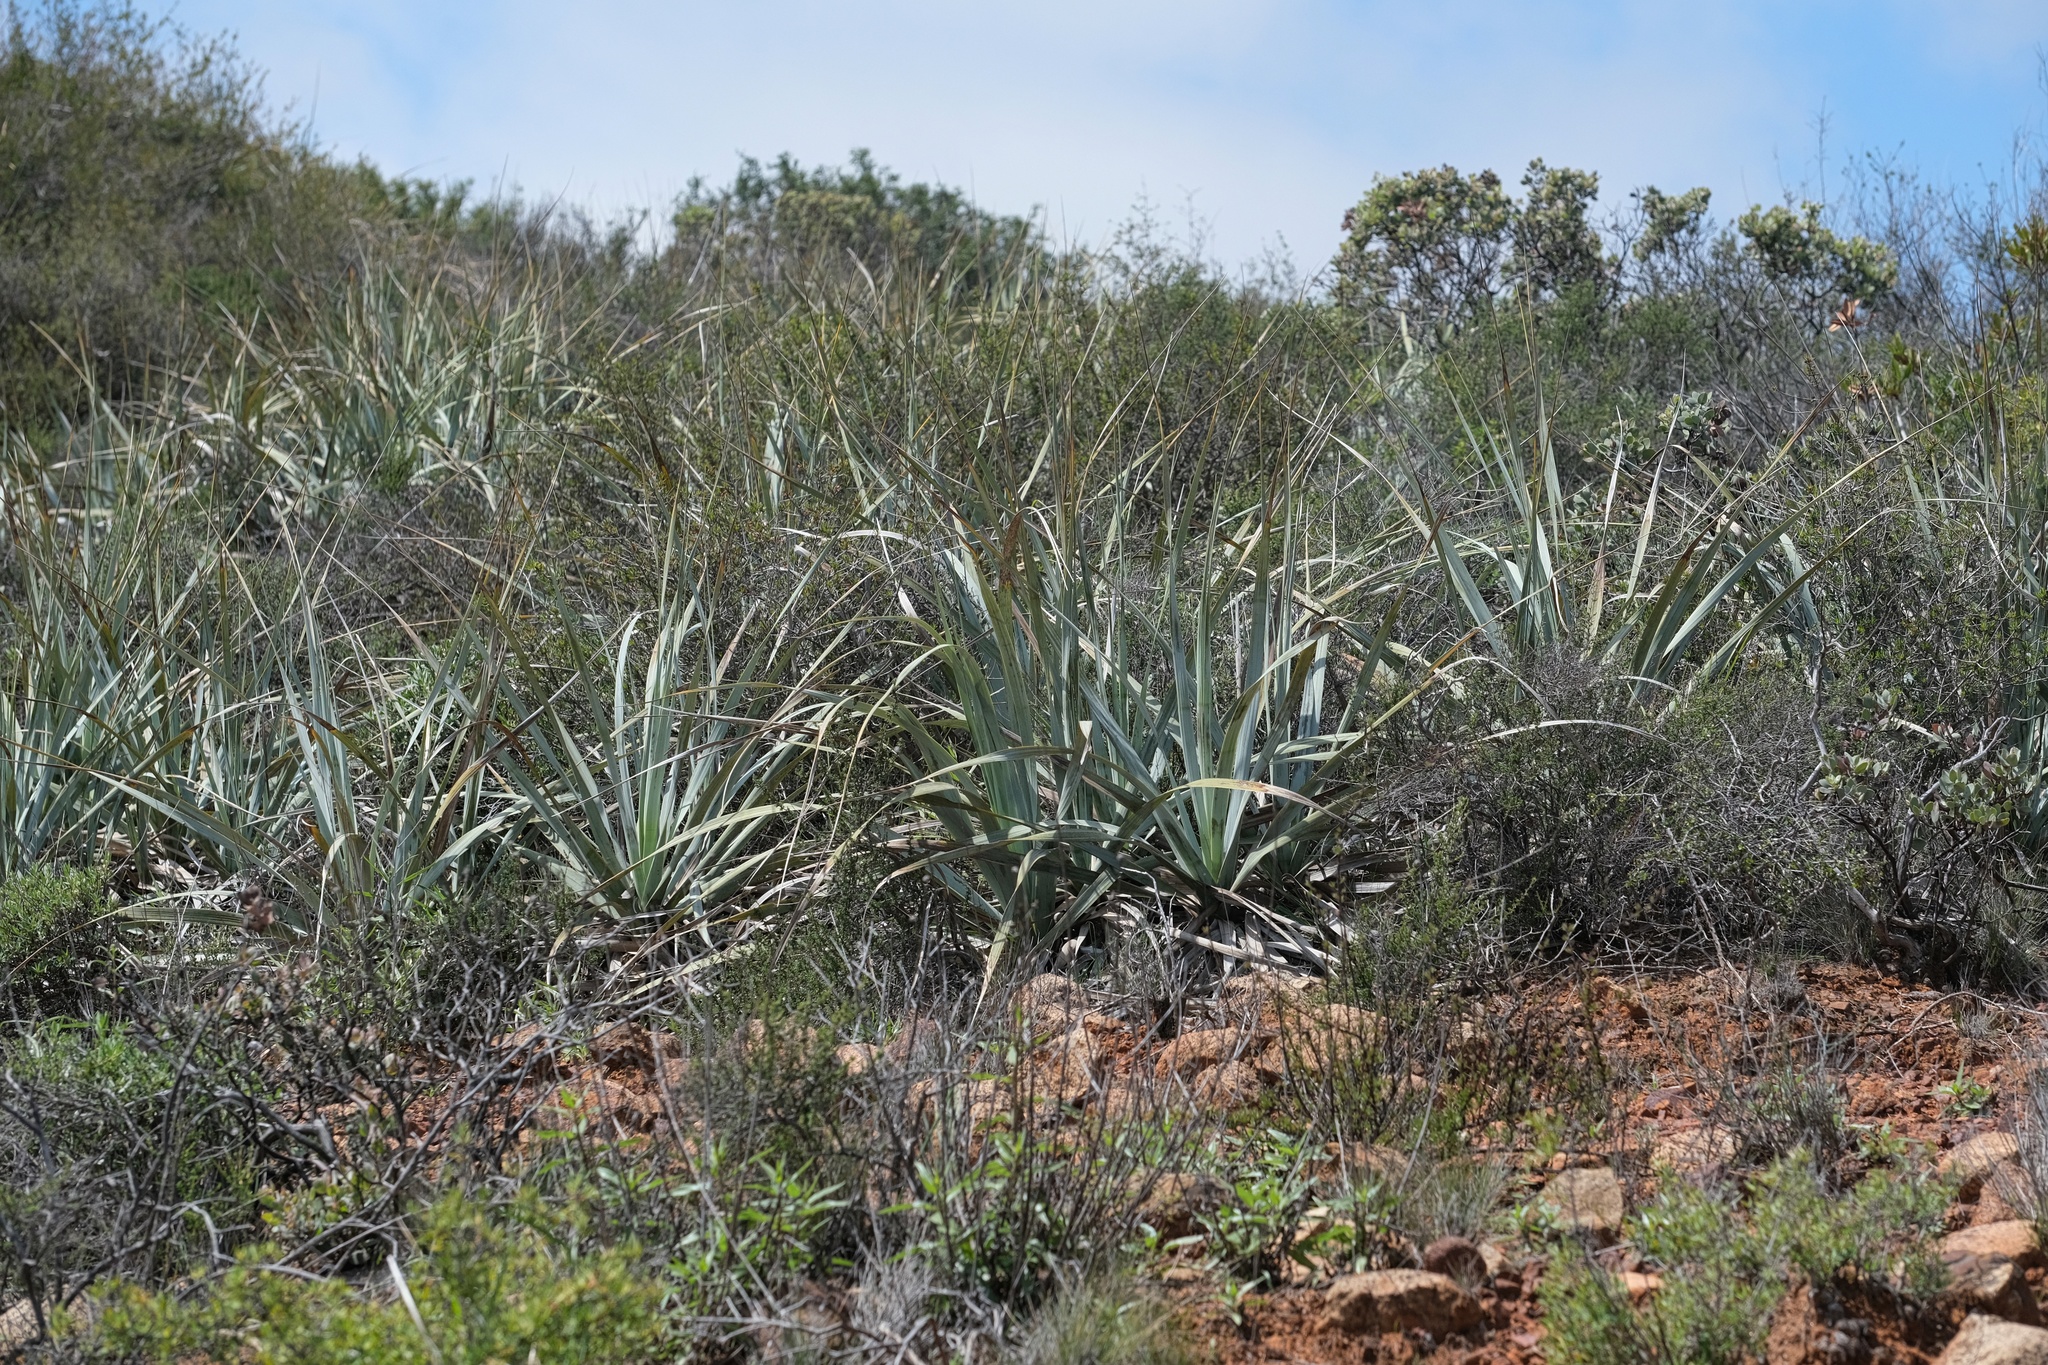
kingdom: Plantae
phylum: Tracheophyta
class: Liliopsida
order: Asparagales
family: Asparagaceae
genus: Nolina
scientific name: Nolina interrata
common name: Dehesa bear-grass
